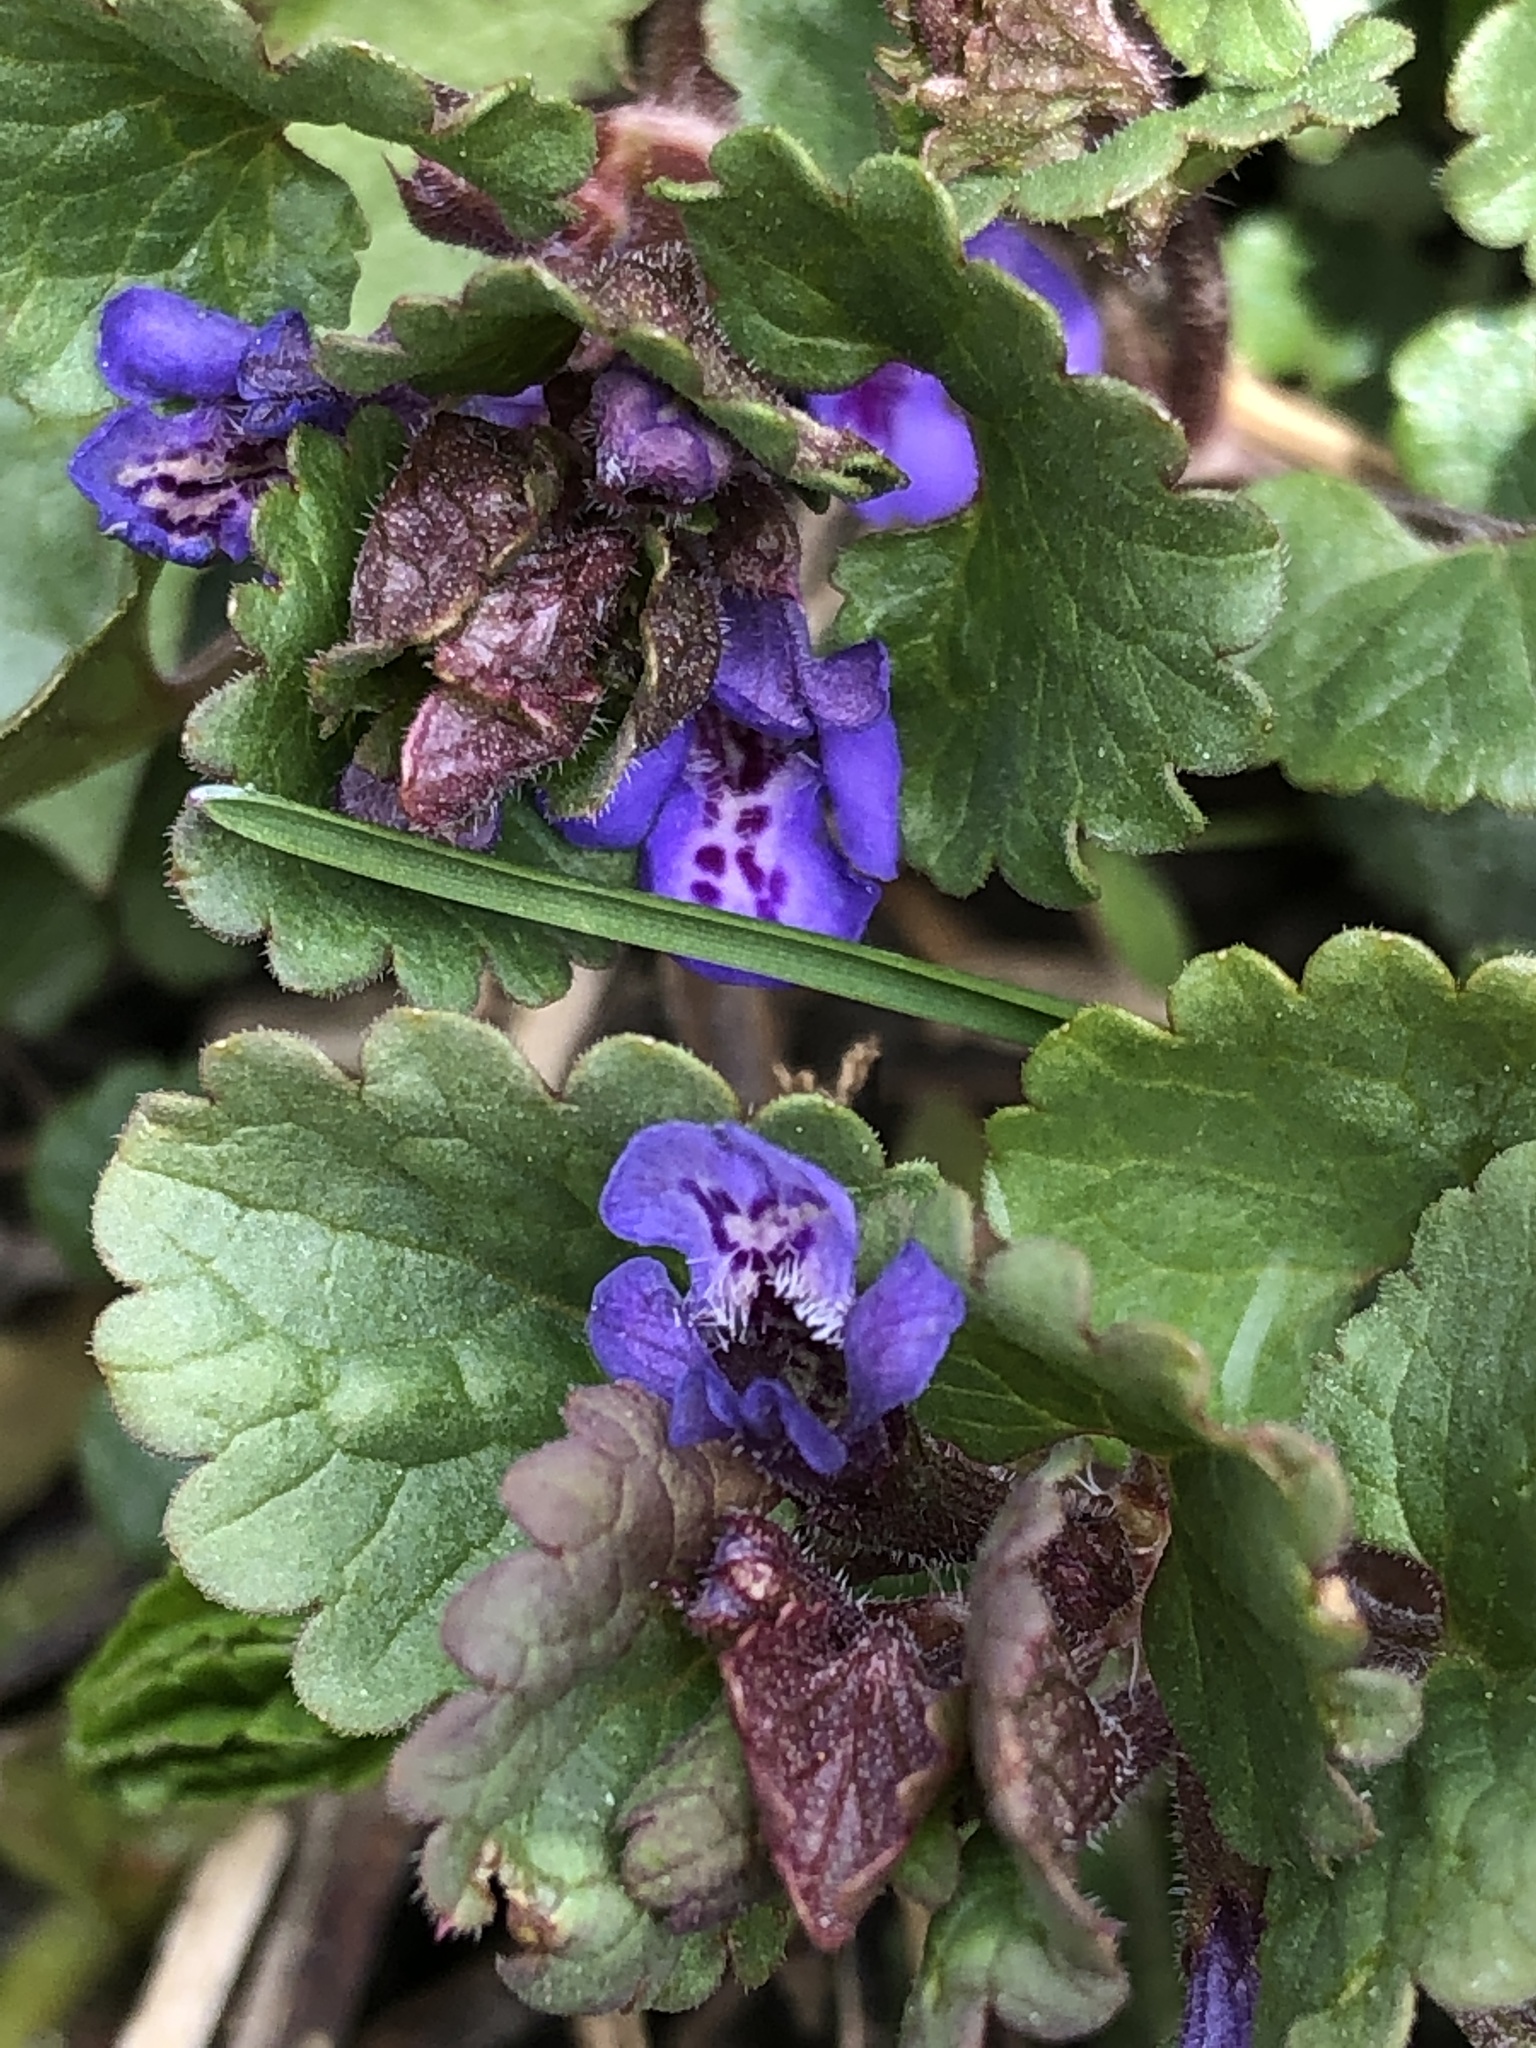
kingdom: Plantae
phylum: Tracheophyta
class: Magnoliopsida
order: Lamiales
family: Lamiaceae
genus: Glechoma
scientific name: Glechoma hederacea
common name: Ground ivy
